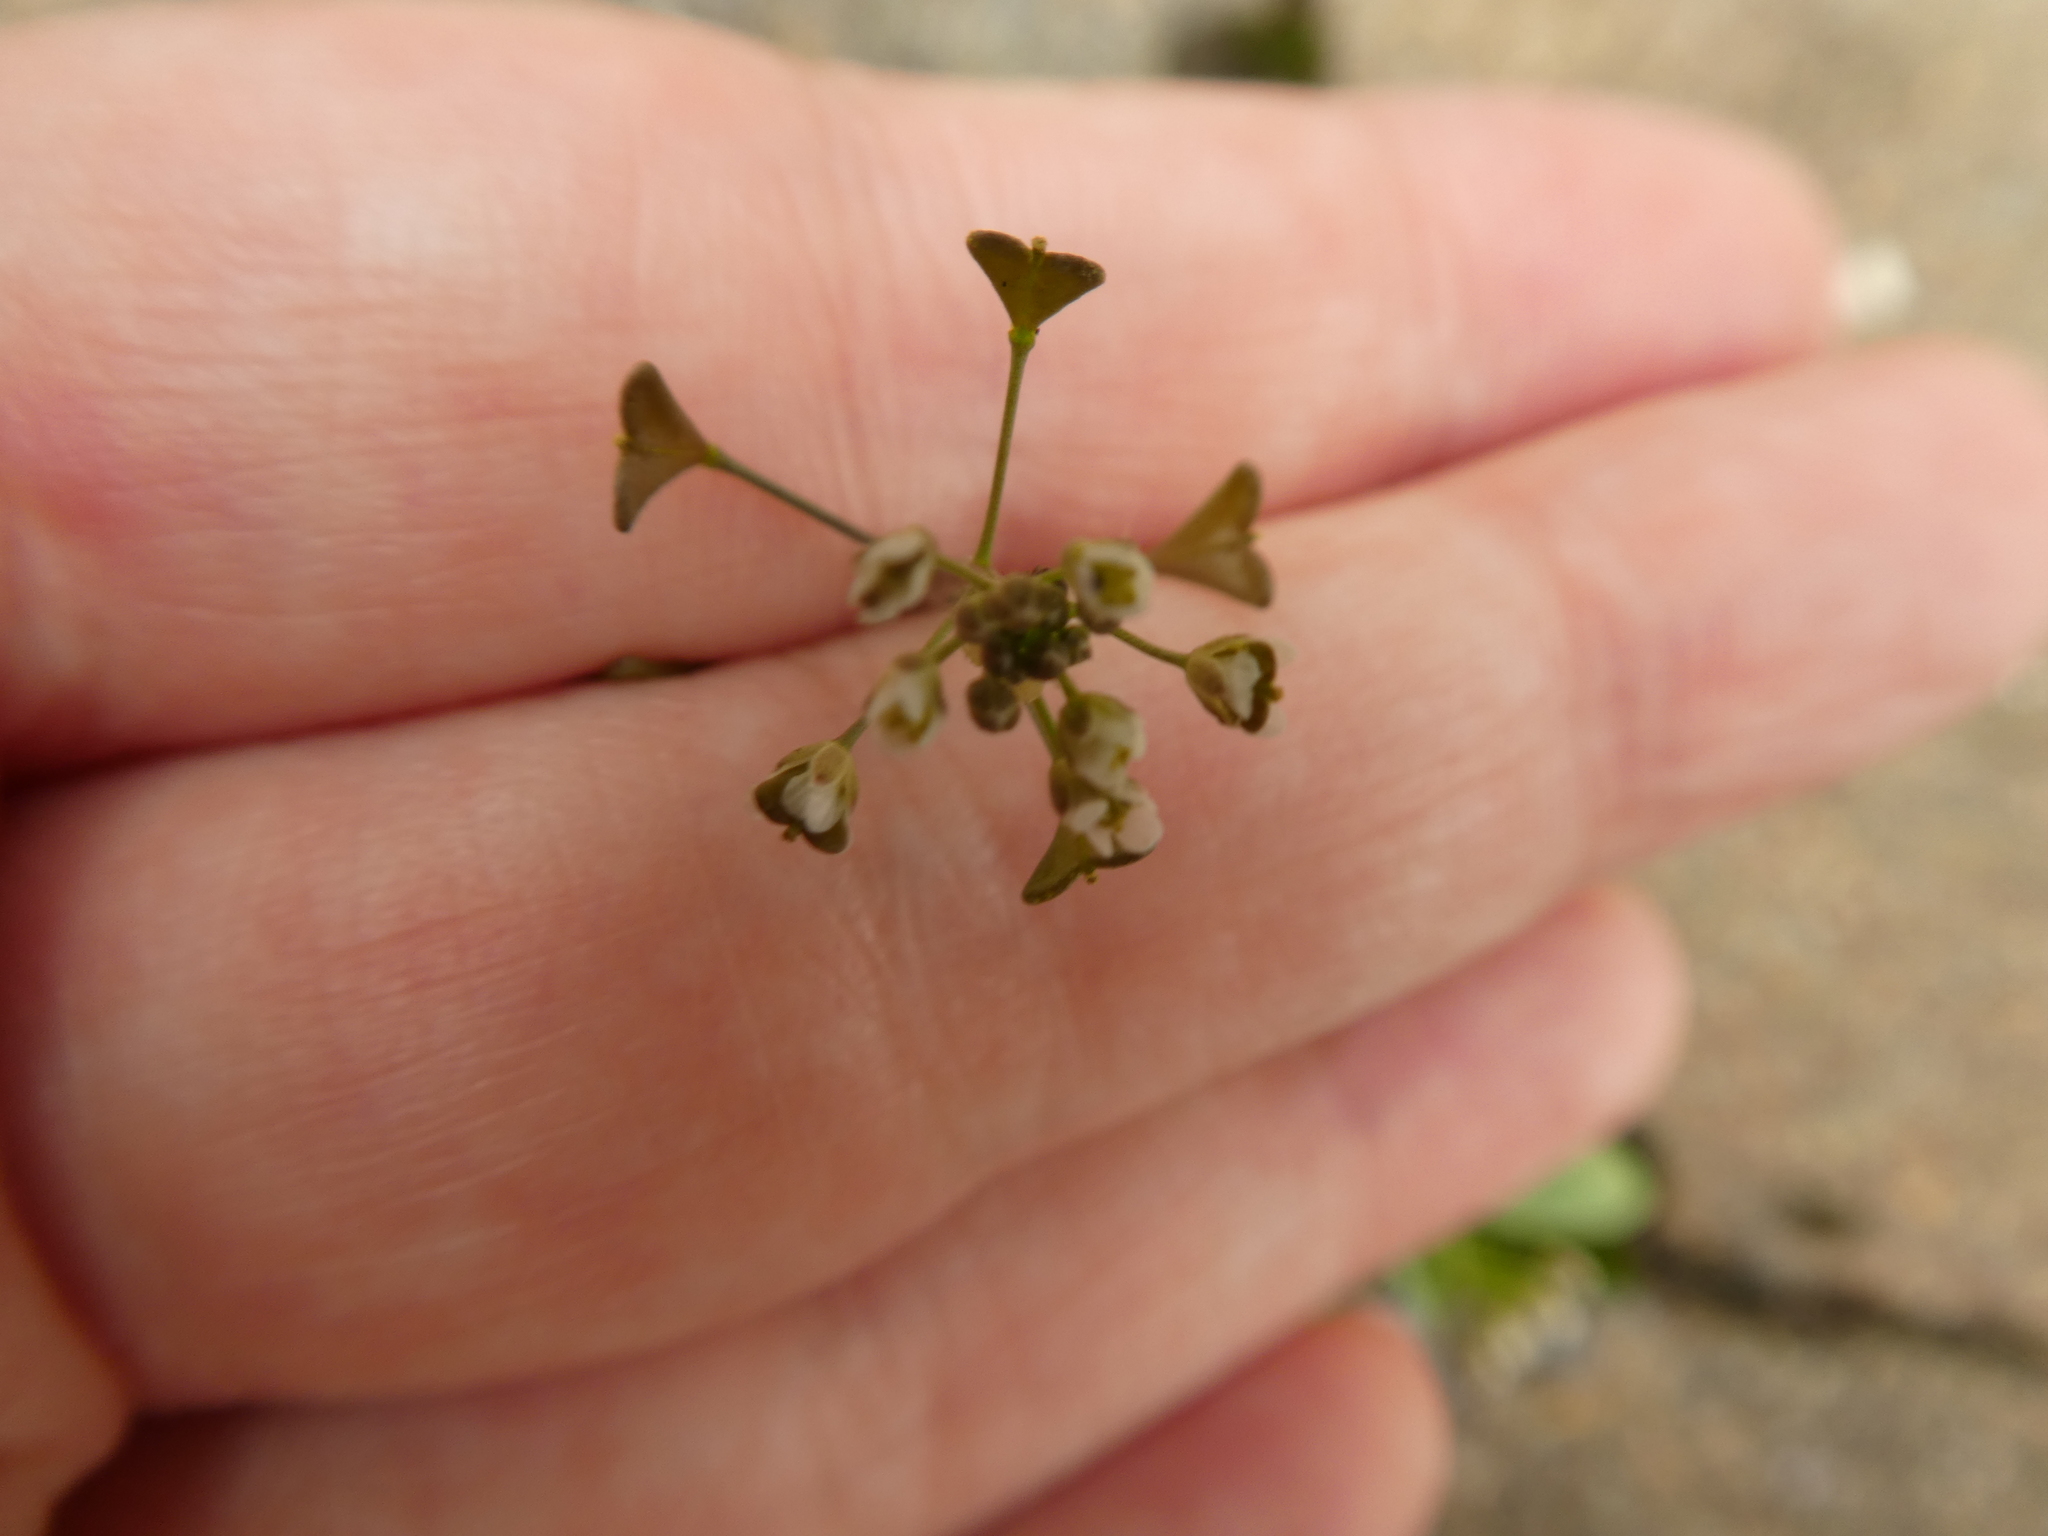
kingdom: Plantae
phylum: Tracheophyta
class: Magnoliopsida
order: Brassicales
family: Brassicaceae
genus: Capsella
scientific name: Capsella bursa-pastoris
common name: Shepherd's purse
